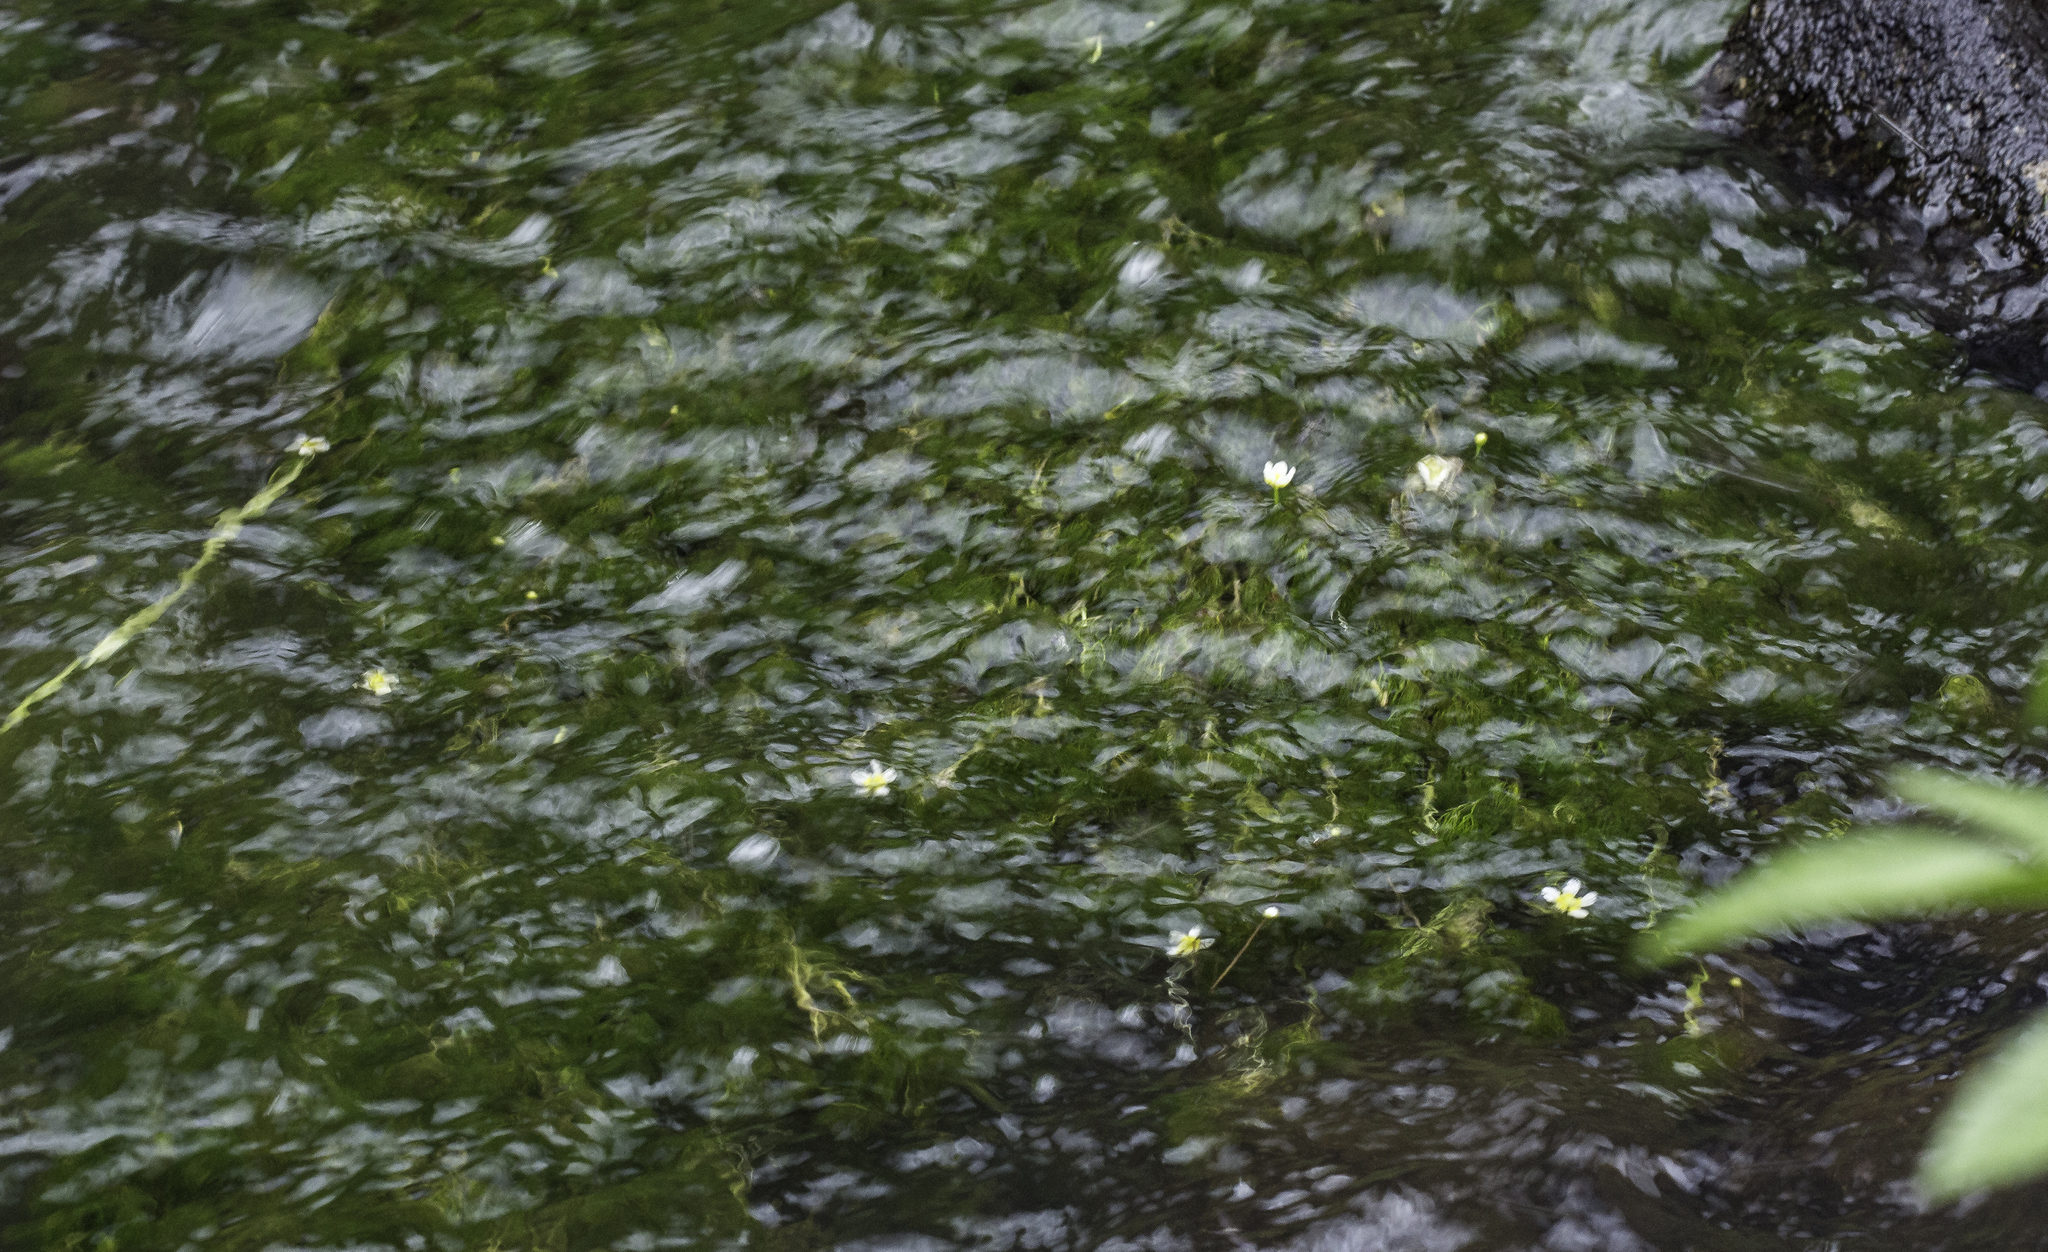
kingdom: Plantae
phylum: Tracheophyta
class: Magnoliopsida
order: Ranunculales
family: Ranunculaceae
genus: Ranunculus
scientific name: Ranunculus aquatilis
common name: Common water-crowfoot
